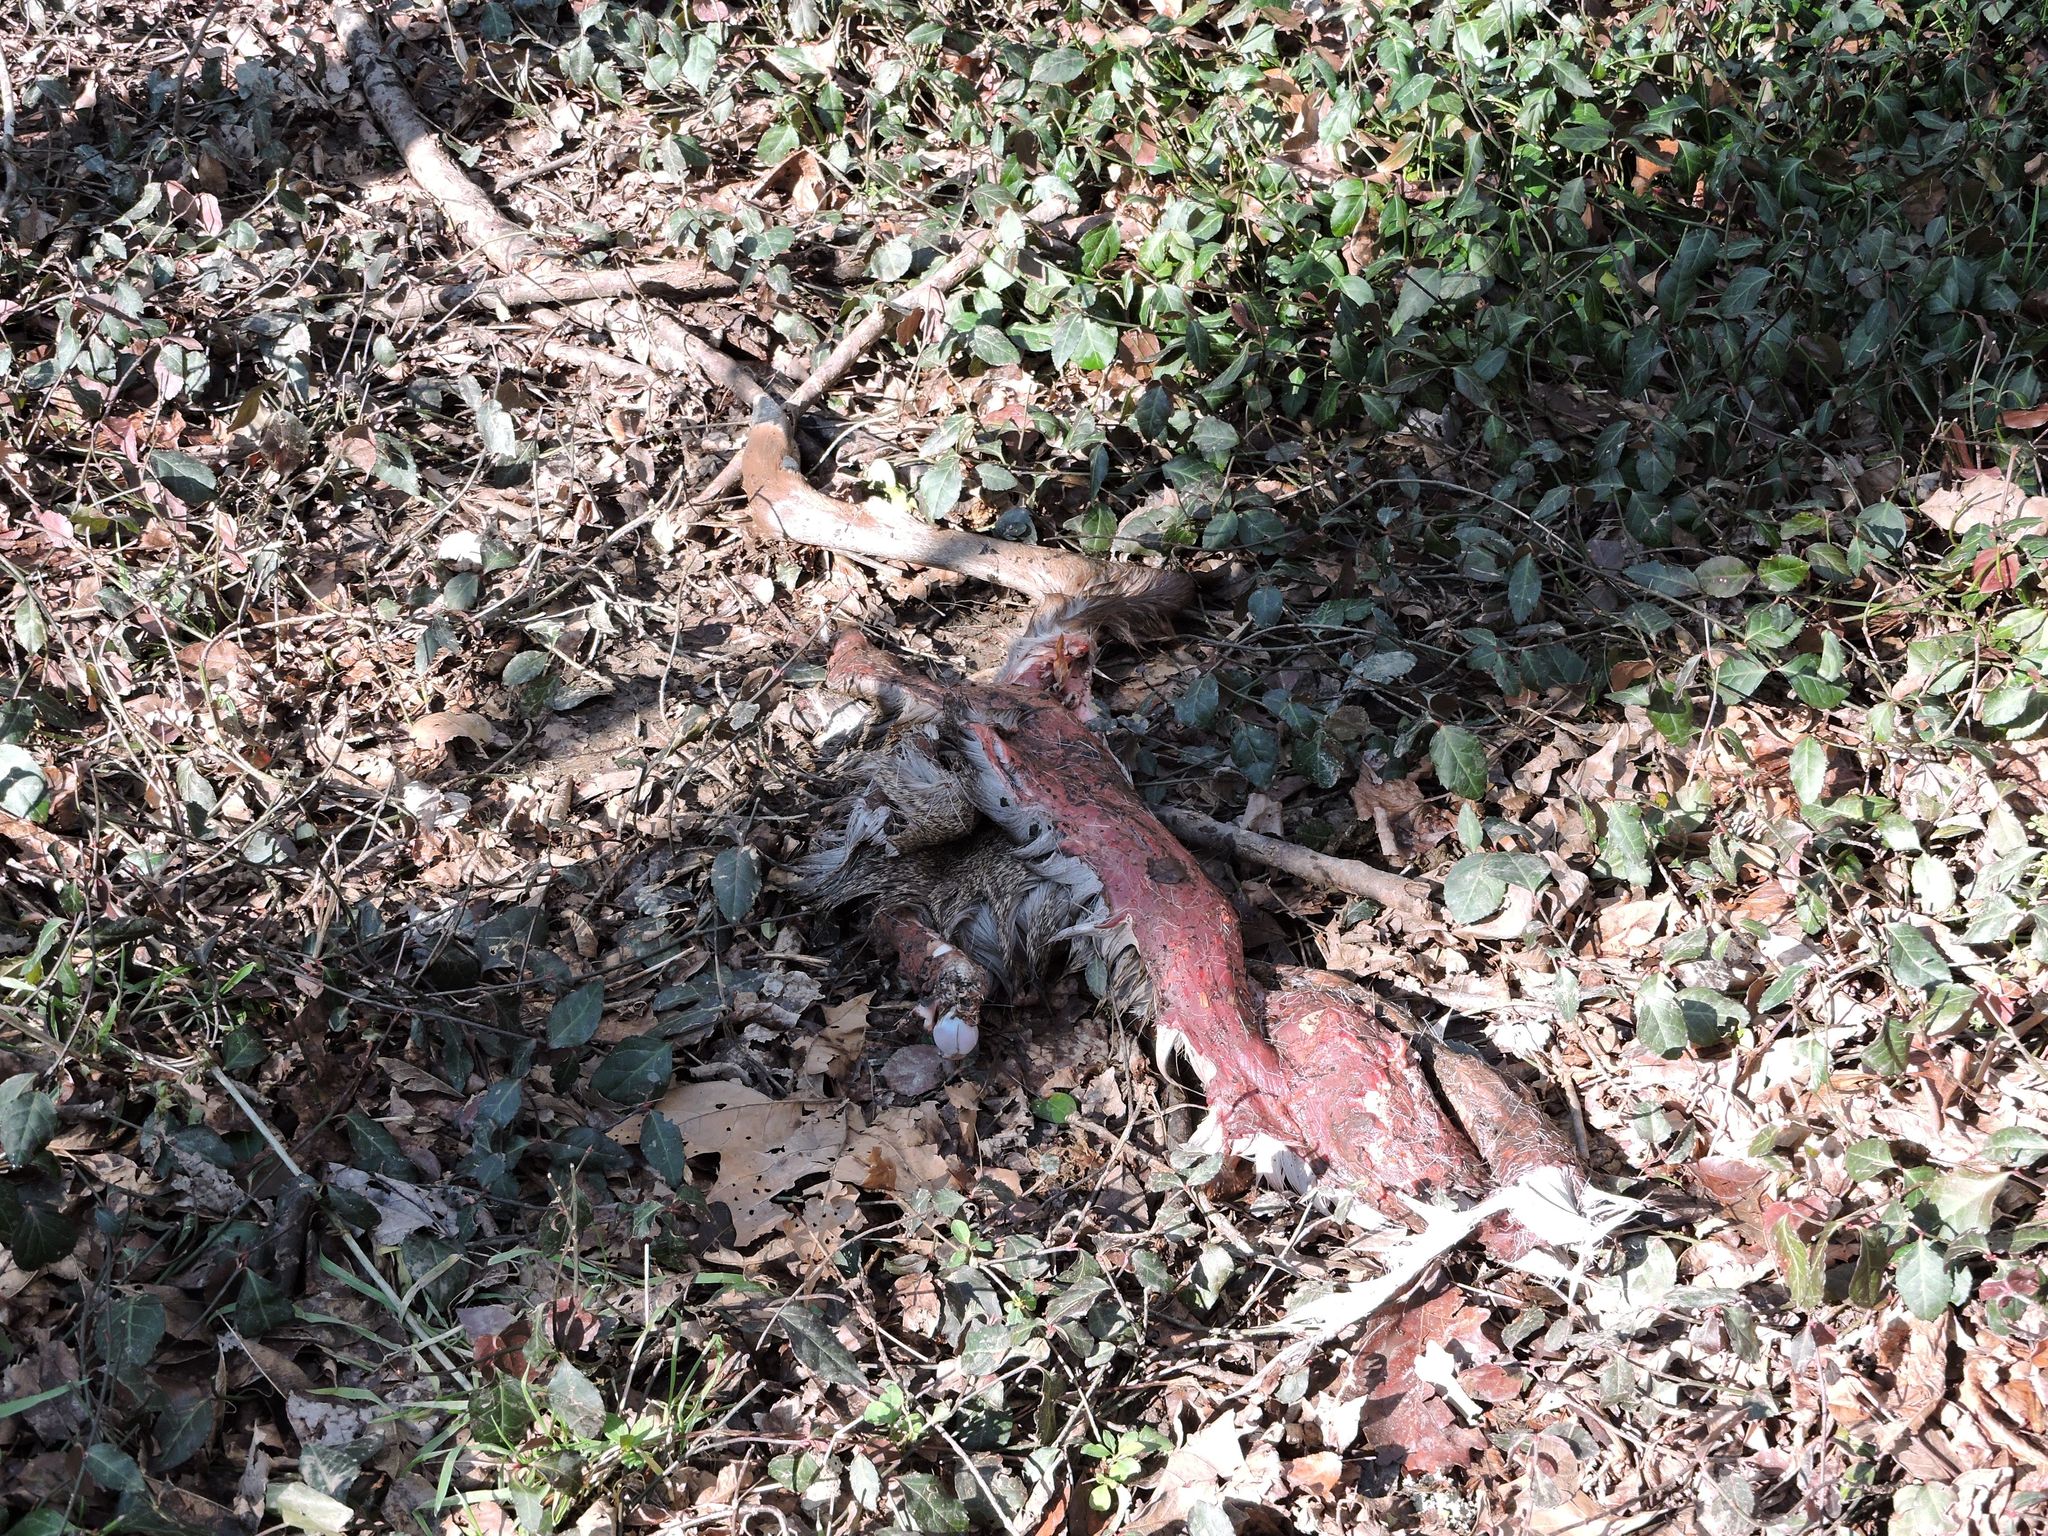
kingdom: Animalia
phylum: Chordata
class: Mammalia
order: Artiodactyla
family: Cervidae
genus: Odocoileus
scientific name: Odocoileus virginianus
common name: White-tailed deer
